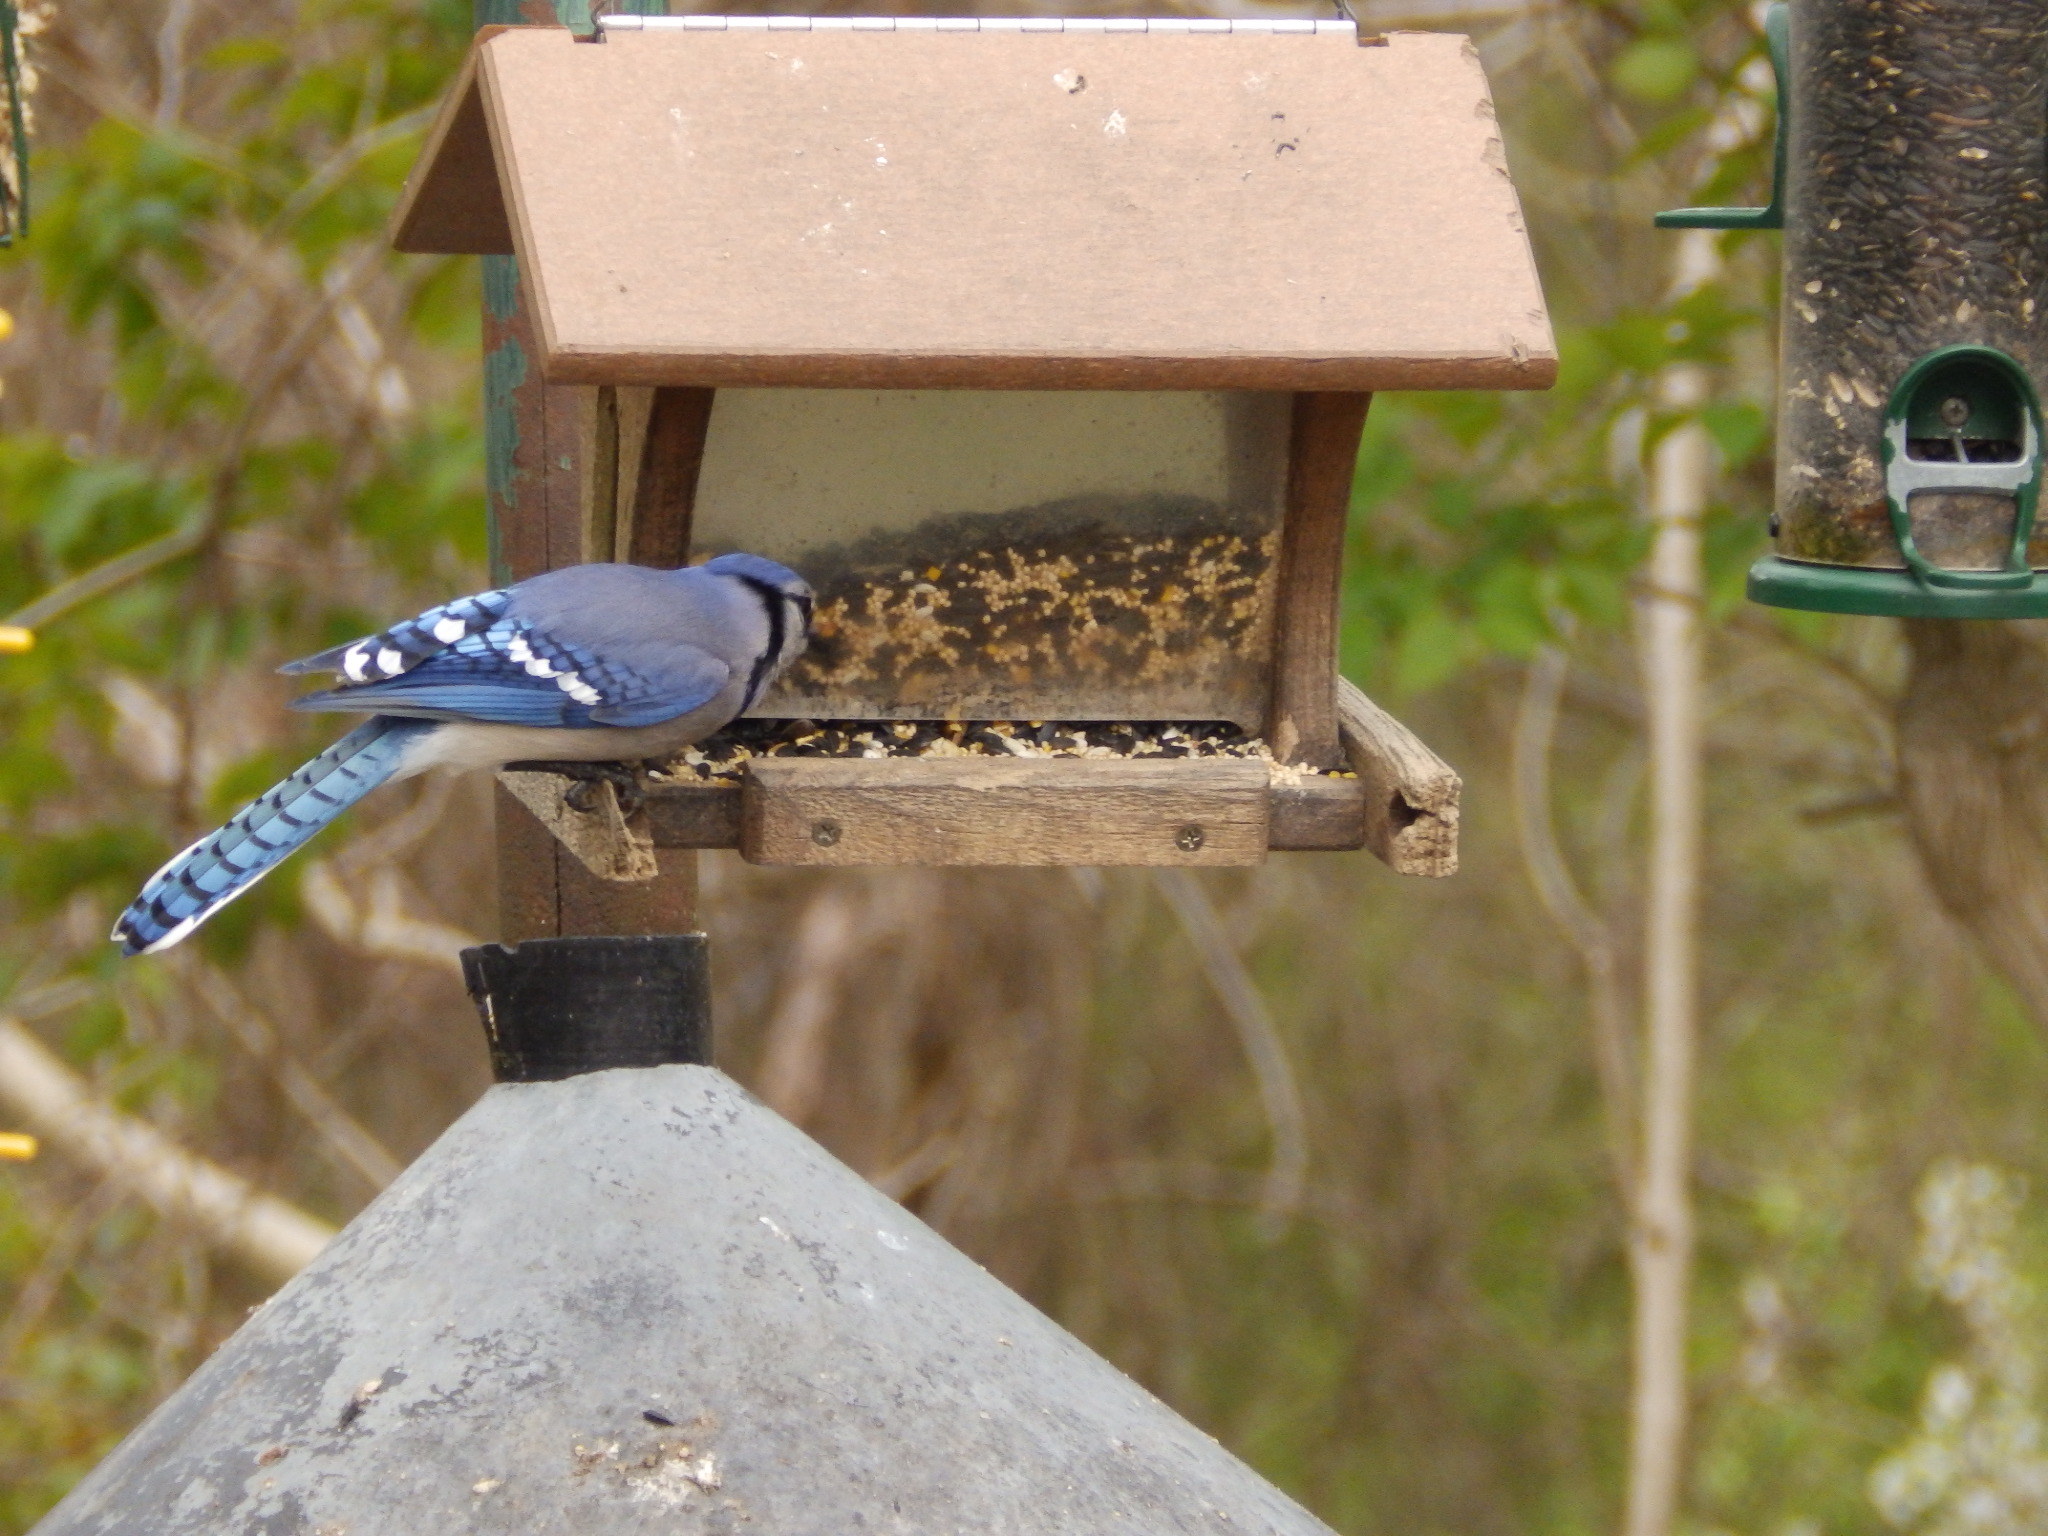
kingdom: Animalia
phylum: Chordata
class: Aves
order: Passeriformes
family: Corvidae
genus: Cyanocitta
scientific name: Cyanocitta cristata
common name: Blue jay
